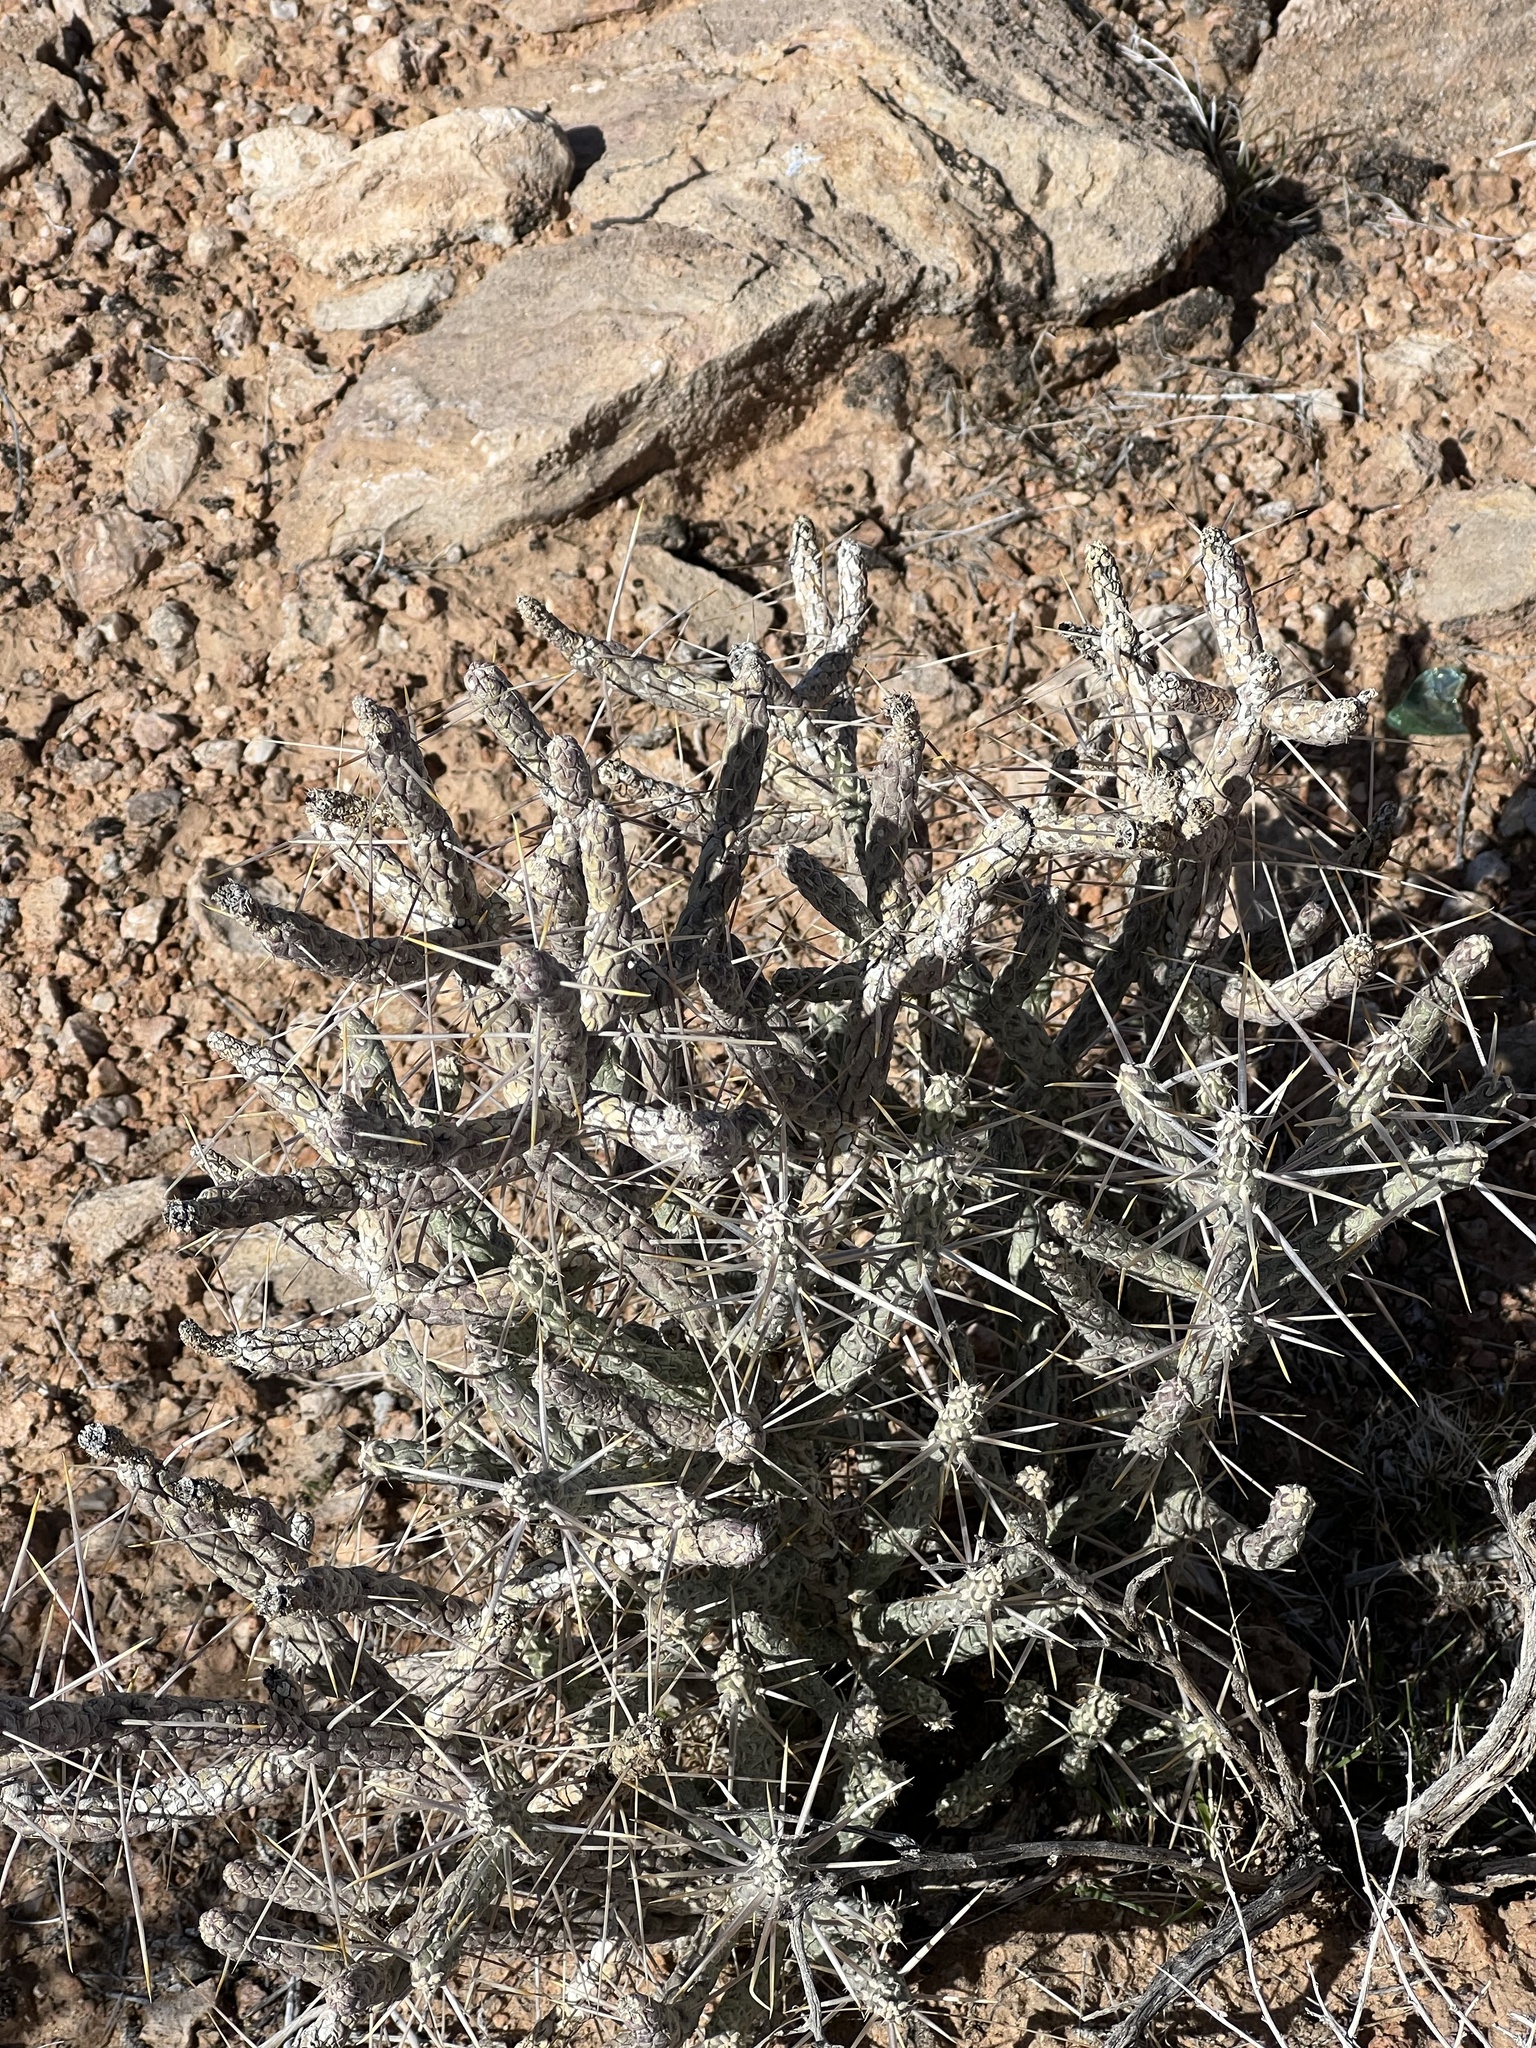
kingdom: Plantae
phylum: Tracheophyta
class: Magnoliopsida
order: Caryophyllales
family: Cactaceae
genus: Cylindropuntia
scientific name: Cylindropuntia ramosissima
